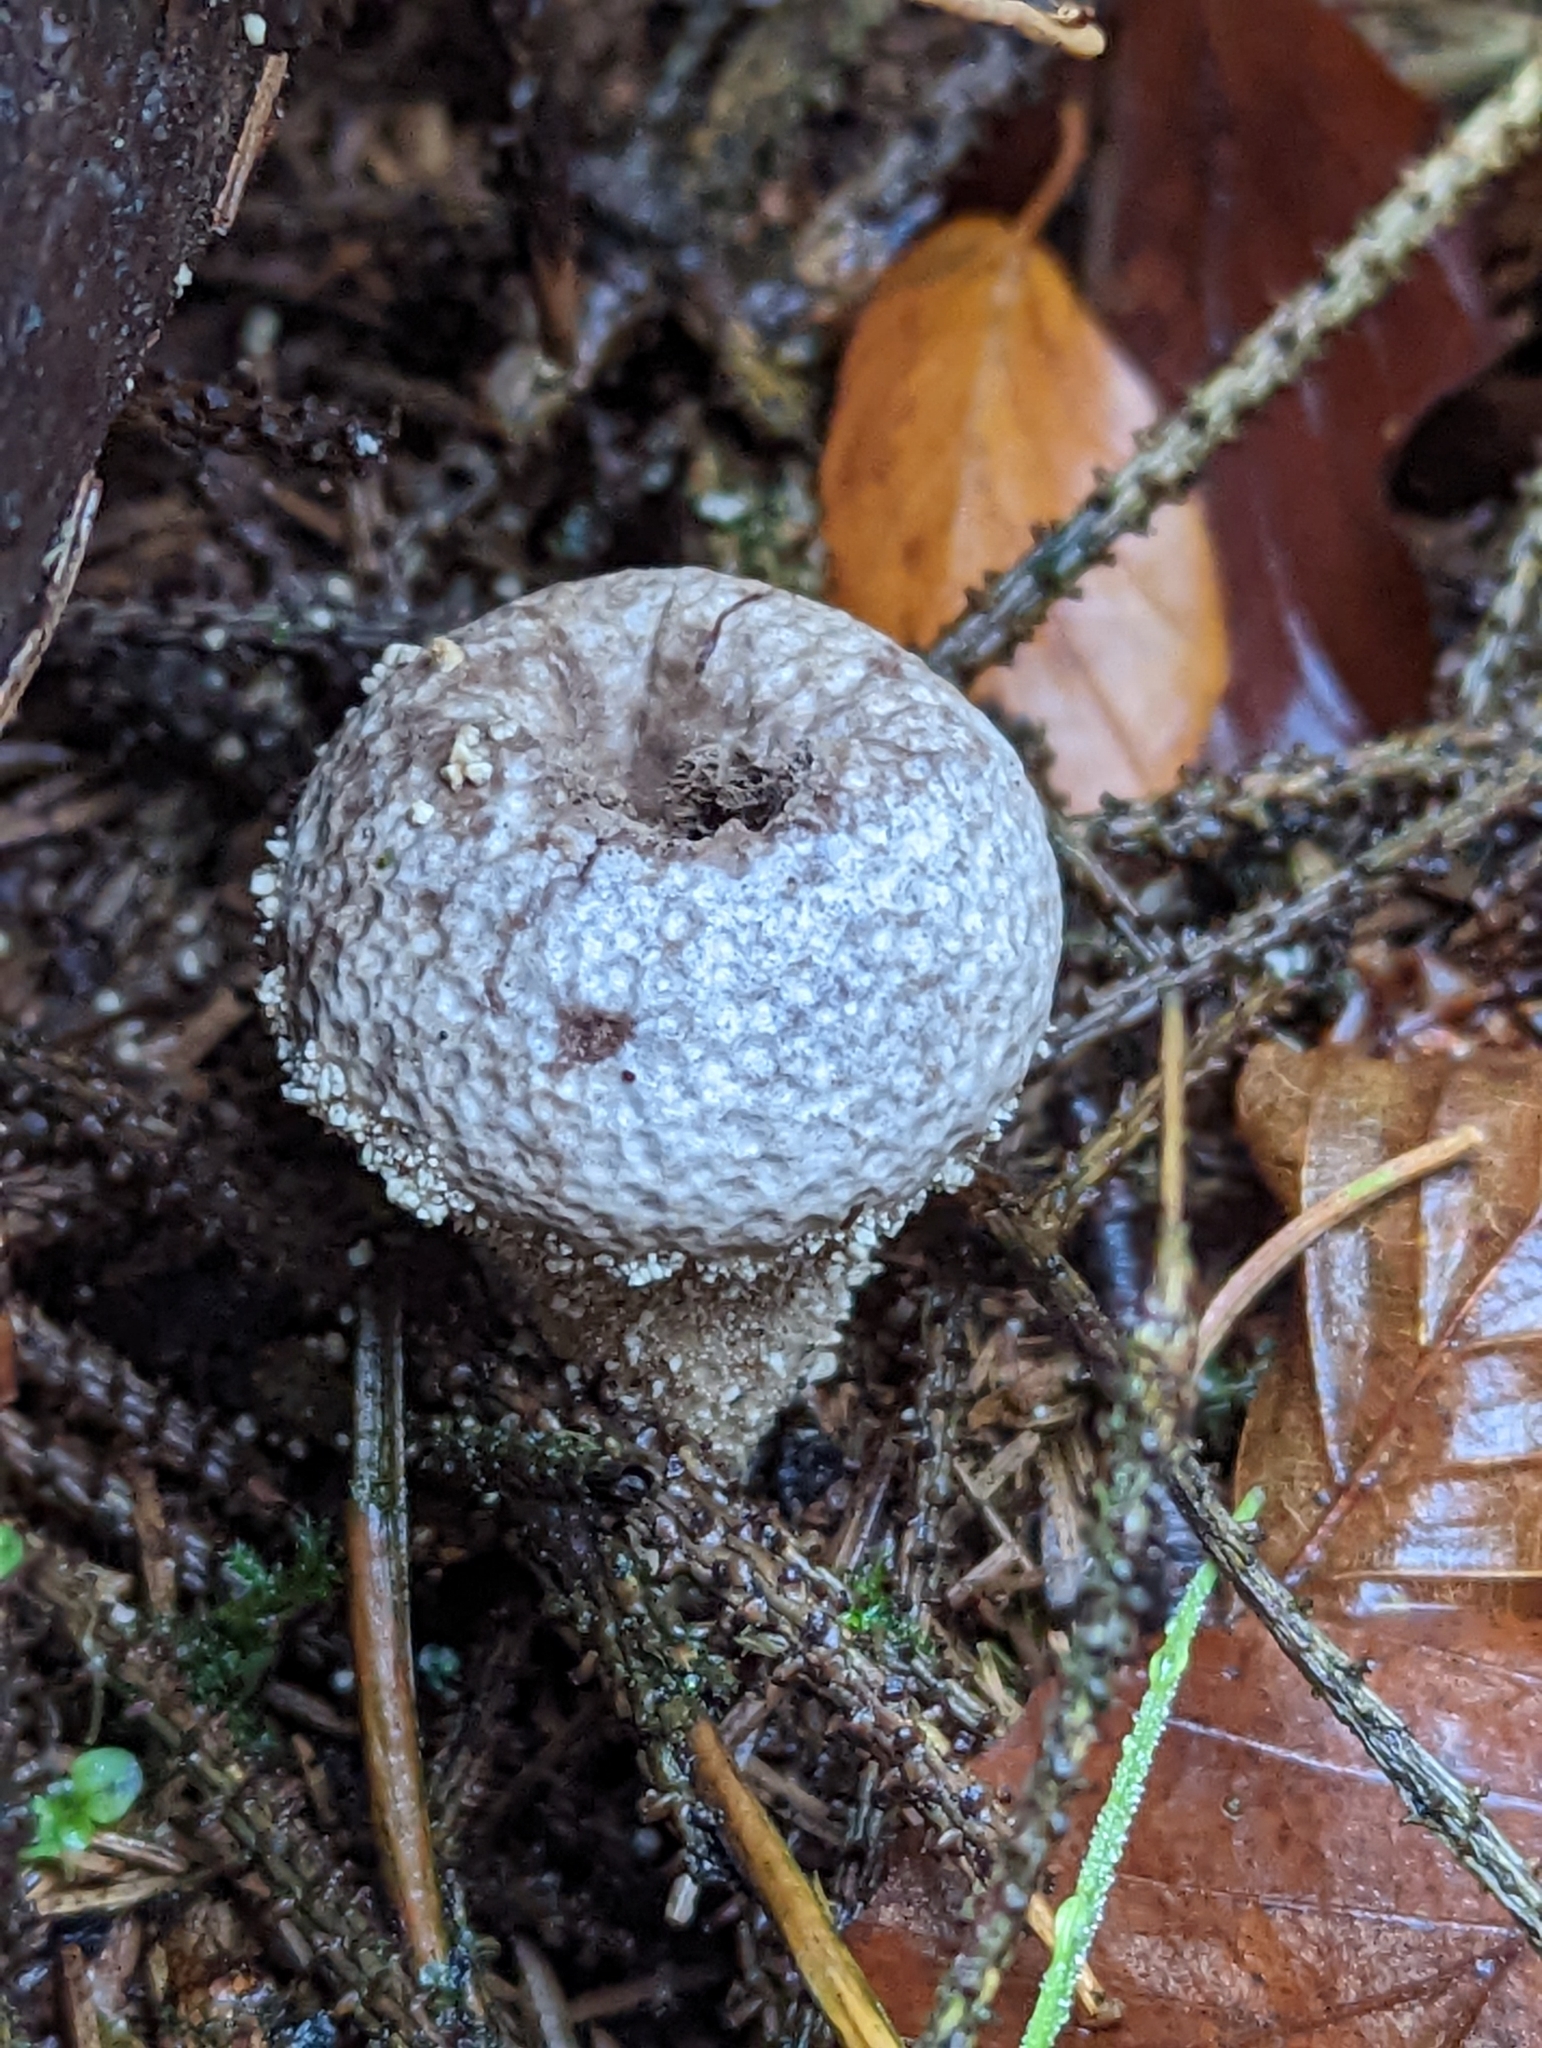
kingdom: Fungi
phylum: Basidiomycota
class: Agaricomycetes
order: Agaricales
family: Lycoperdaceae
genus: Lycoperdon
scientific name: Lycoperdon perlatum
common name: Common puffball
